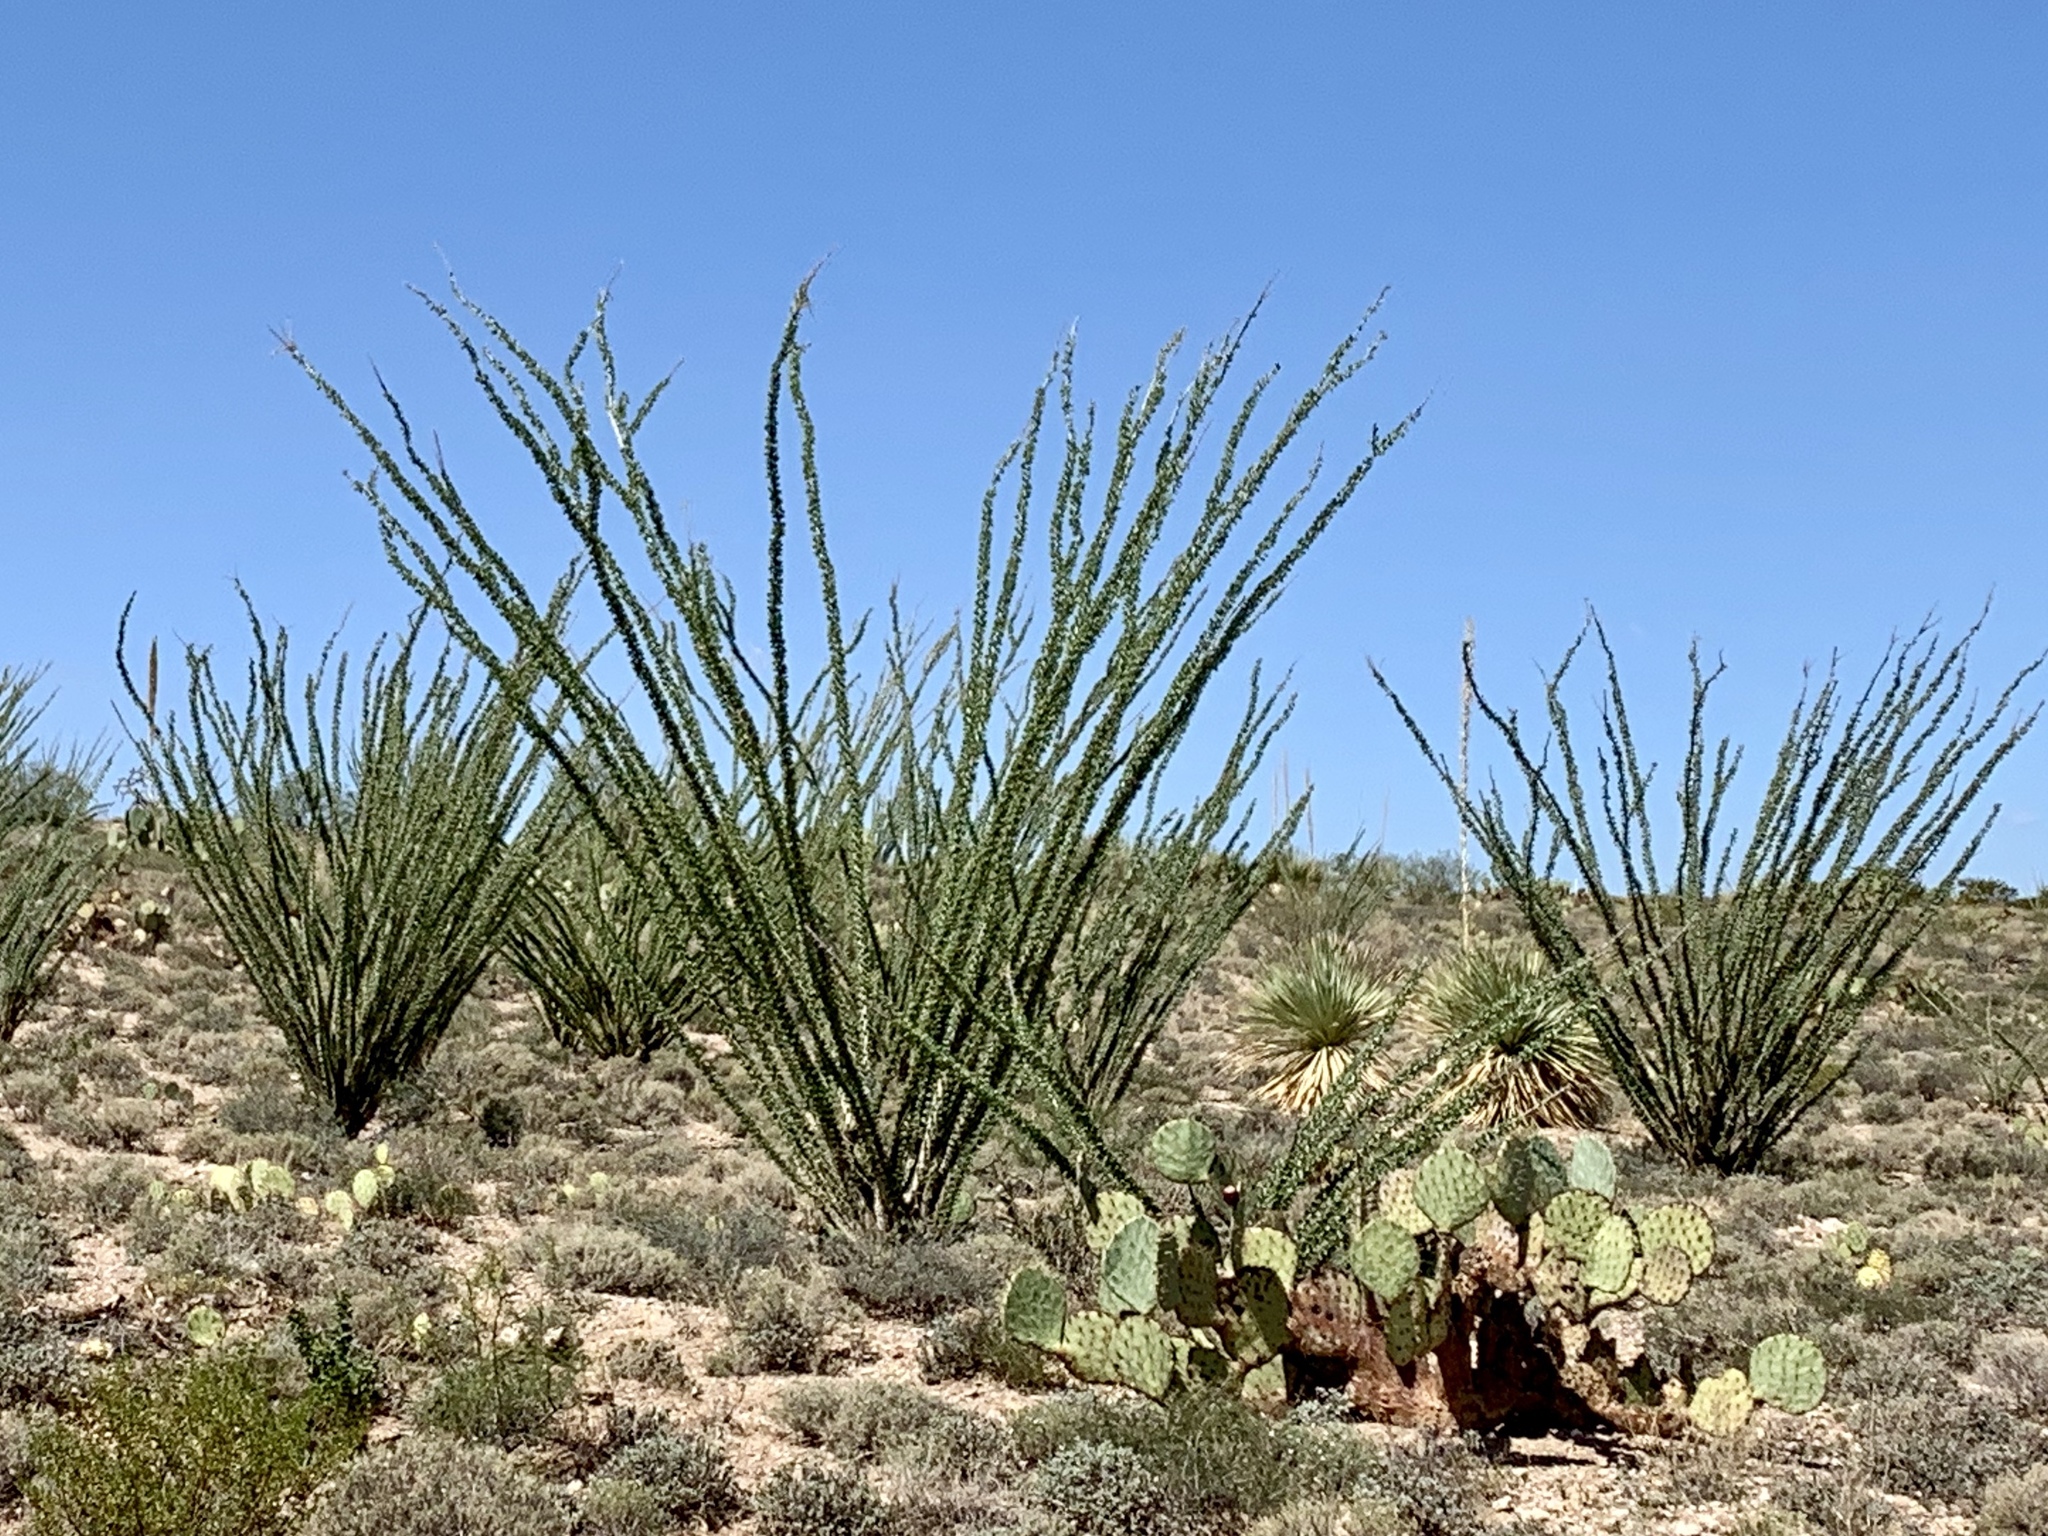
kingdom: Plantae
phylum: Tracheophyta
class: Magnoliopsida
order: Ericales
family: Fouquieriaceae
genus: Fouquieria
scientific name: Fouquieria splendens
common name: Vine-cactus
